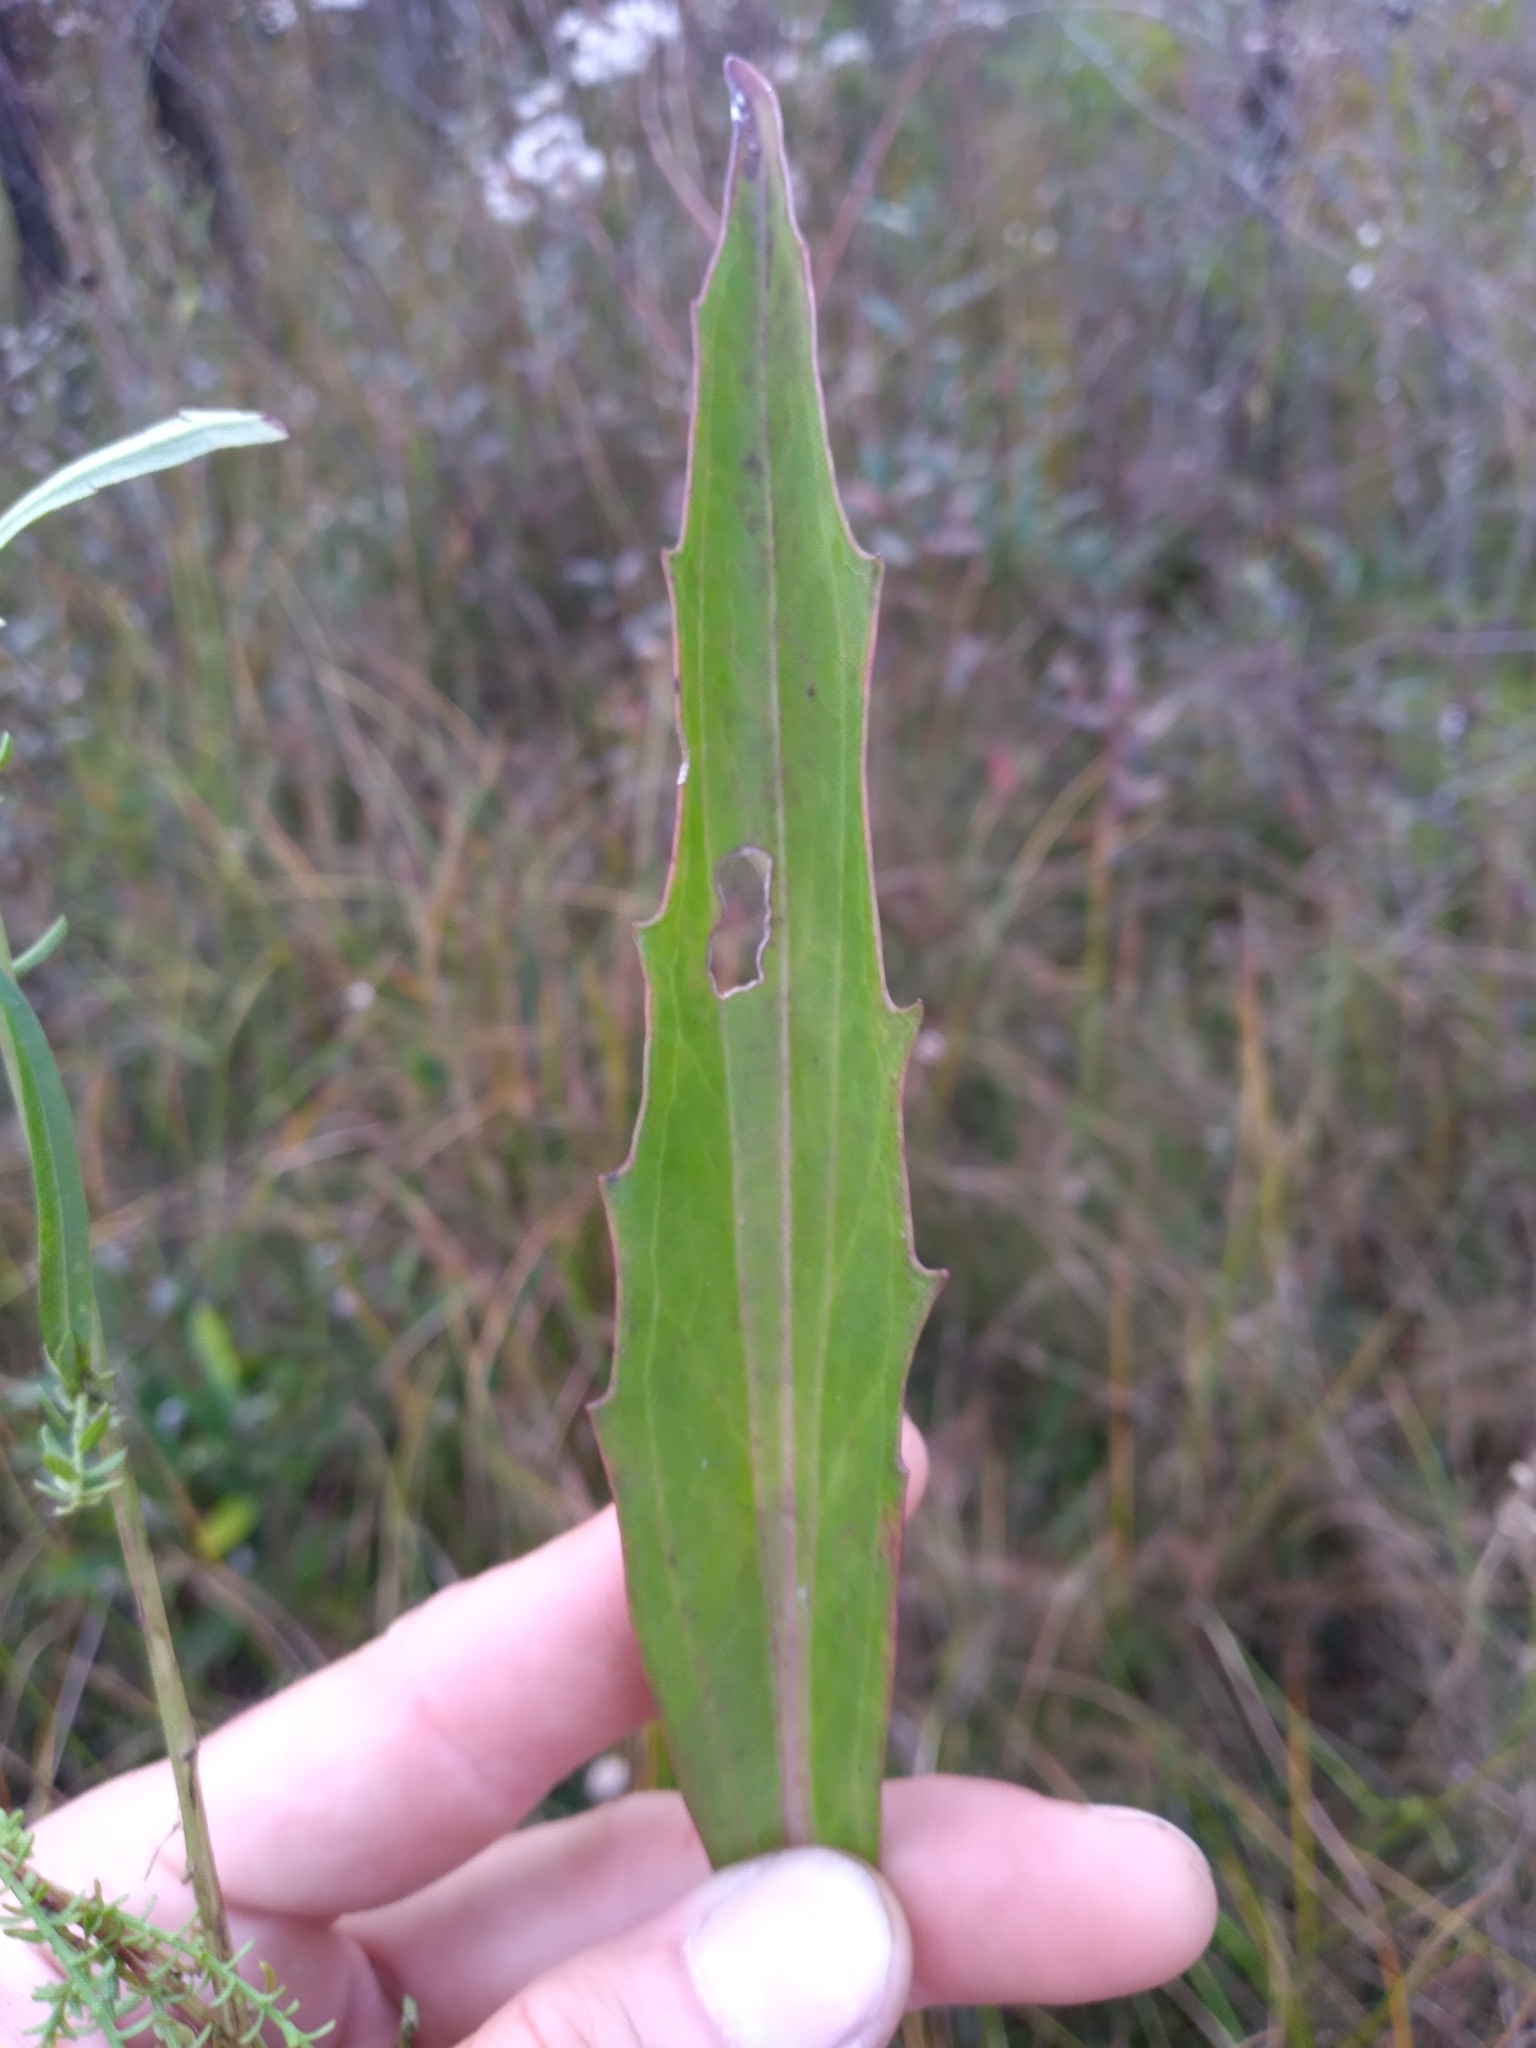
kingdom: Plantae
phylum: Tracheophyta
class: Magnoliopsida
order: Asterales
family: Asteraceae
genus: Arnoglossum
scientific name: Arnoglossum ovatum
